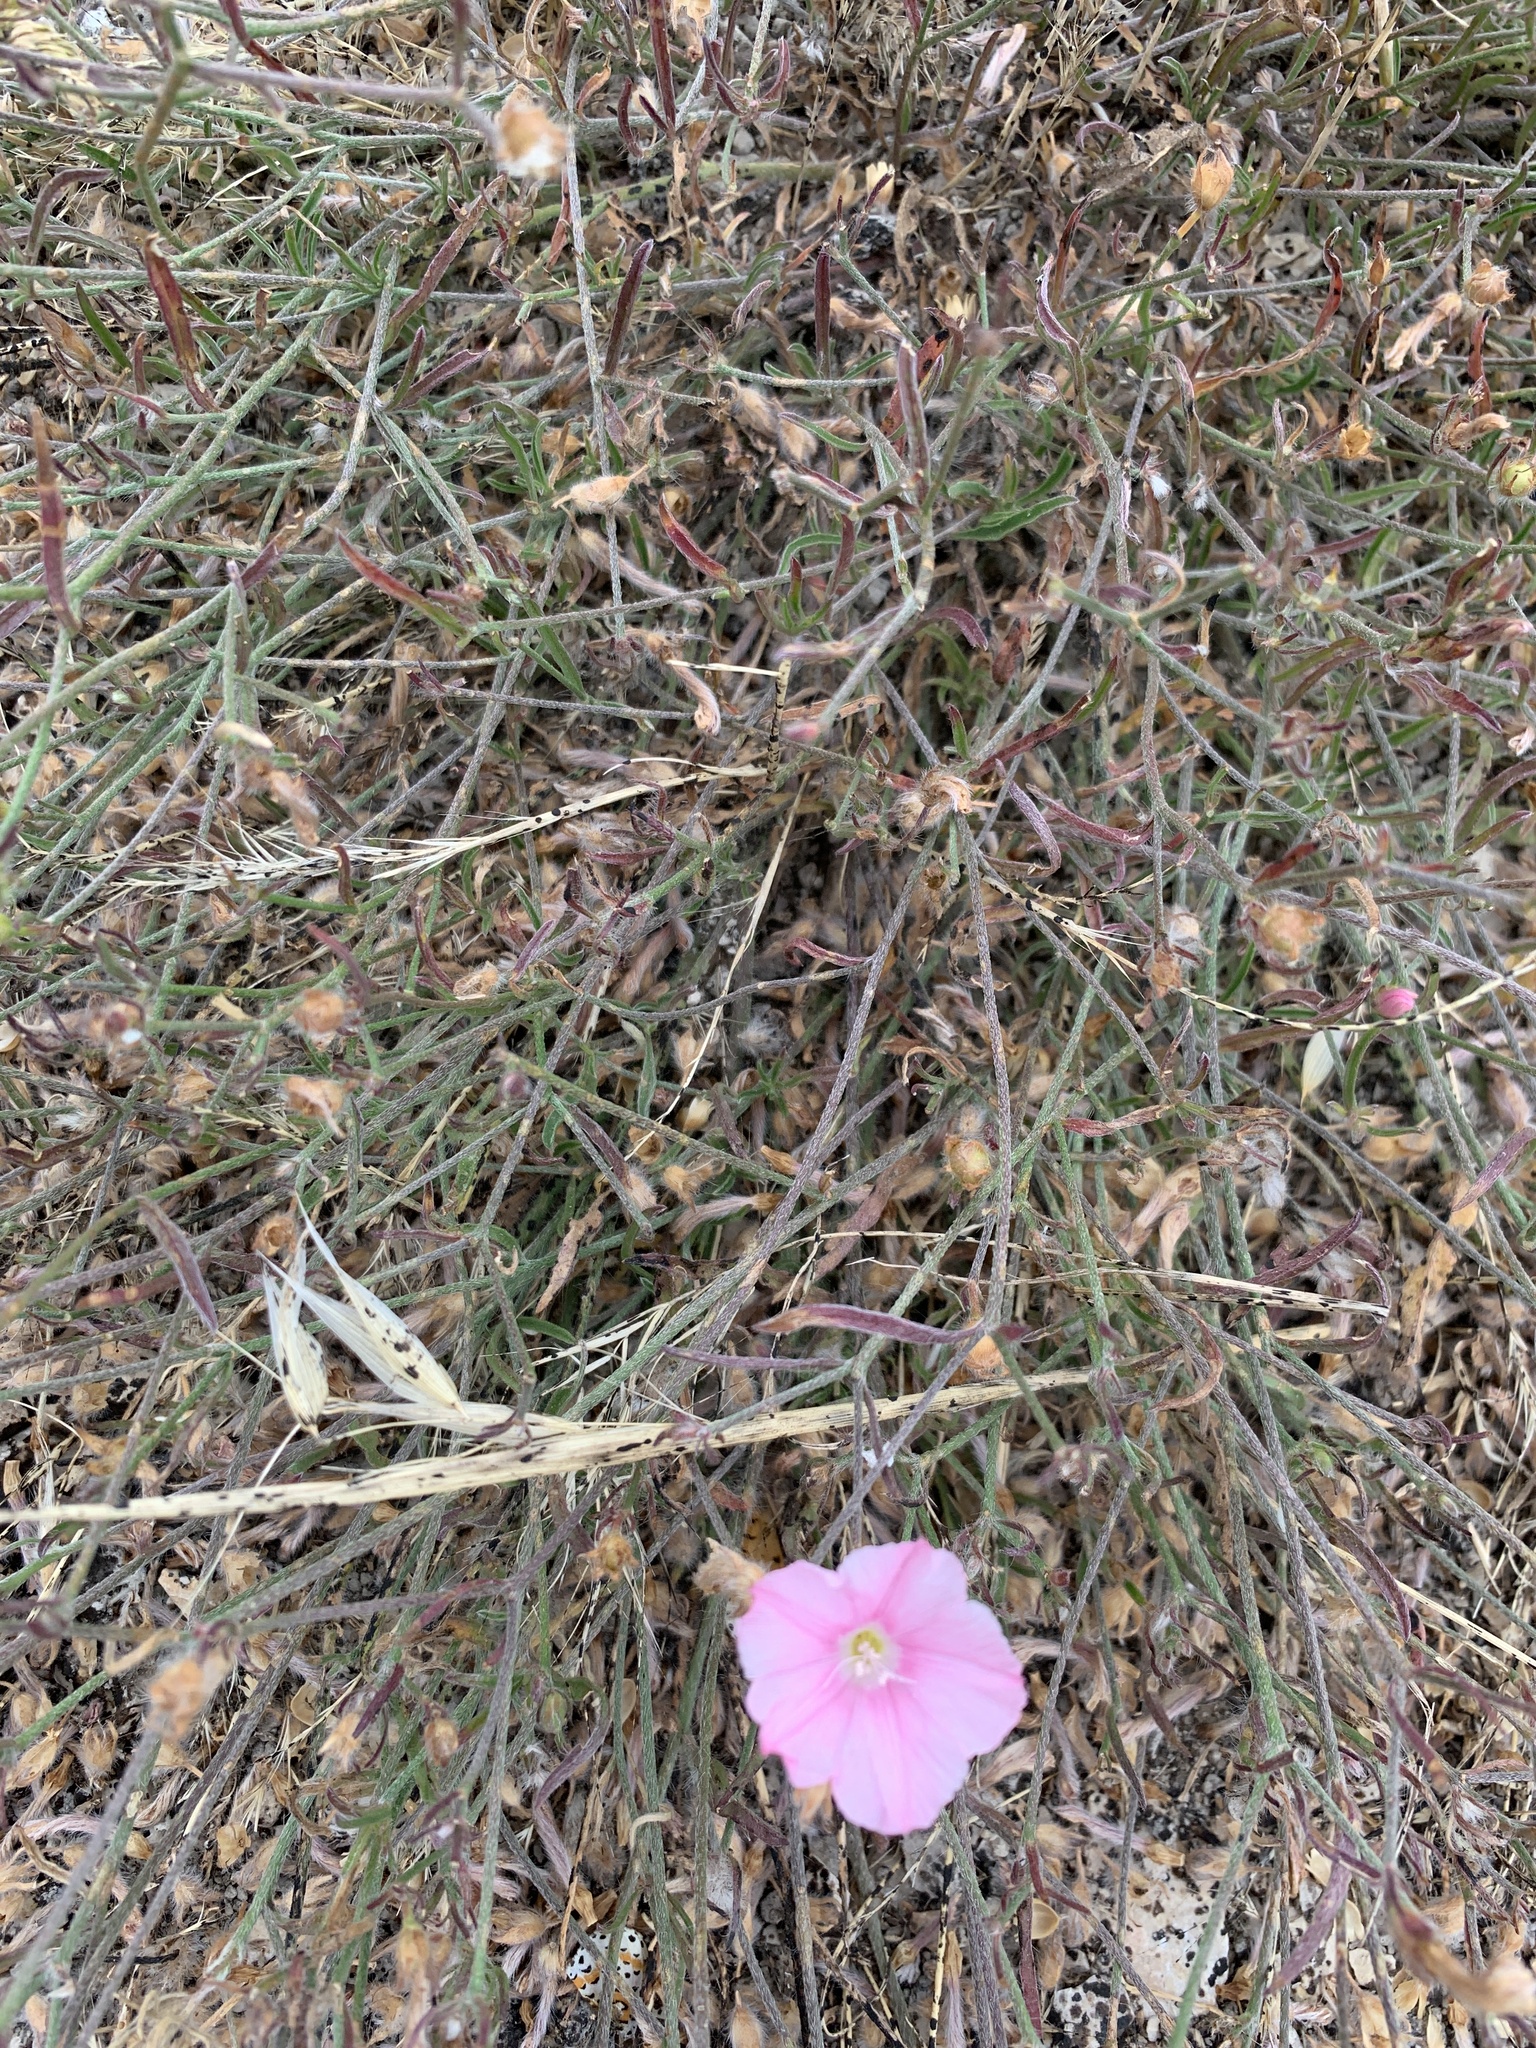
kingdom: Plantae
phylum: Tracheophyta
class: Magnoliopsida
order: Solanales
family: Convolvulaceae
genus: Convolvulus
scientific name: Convolvulus cantabrica
